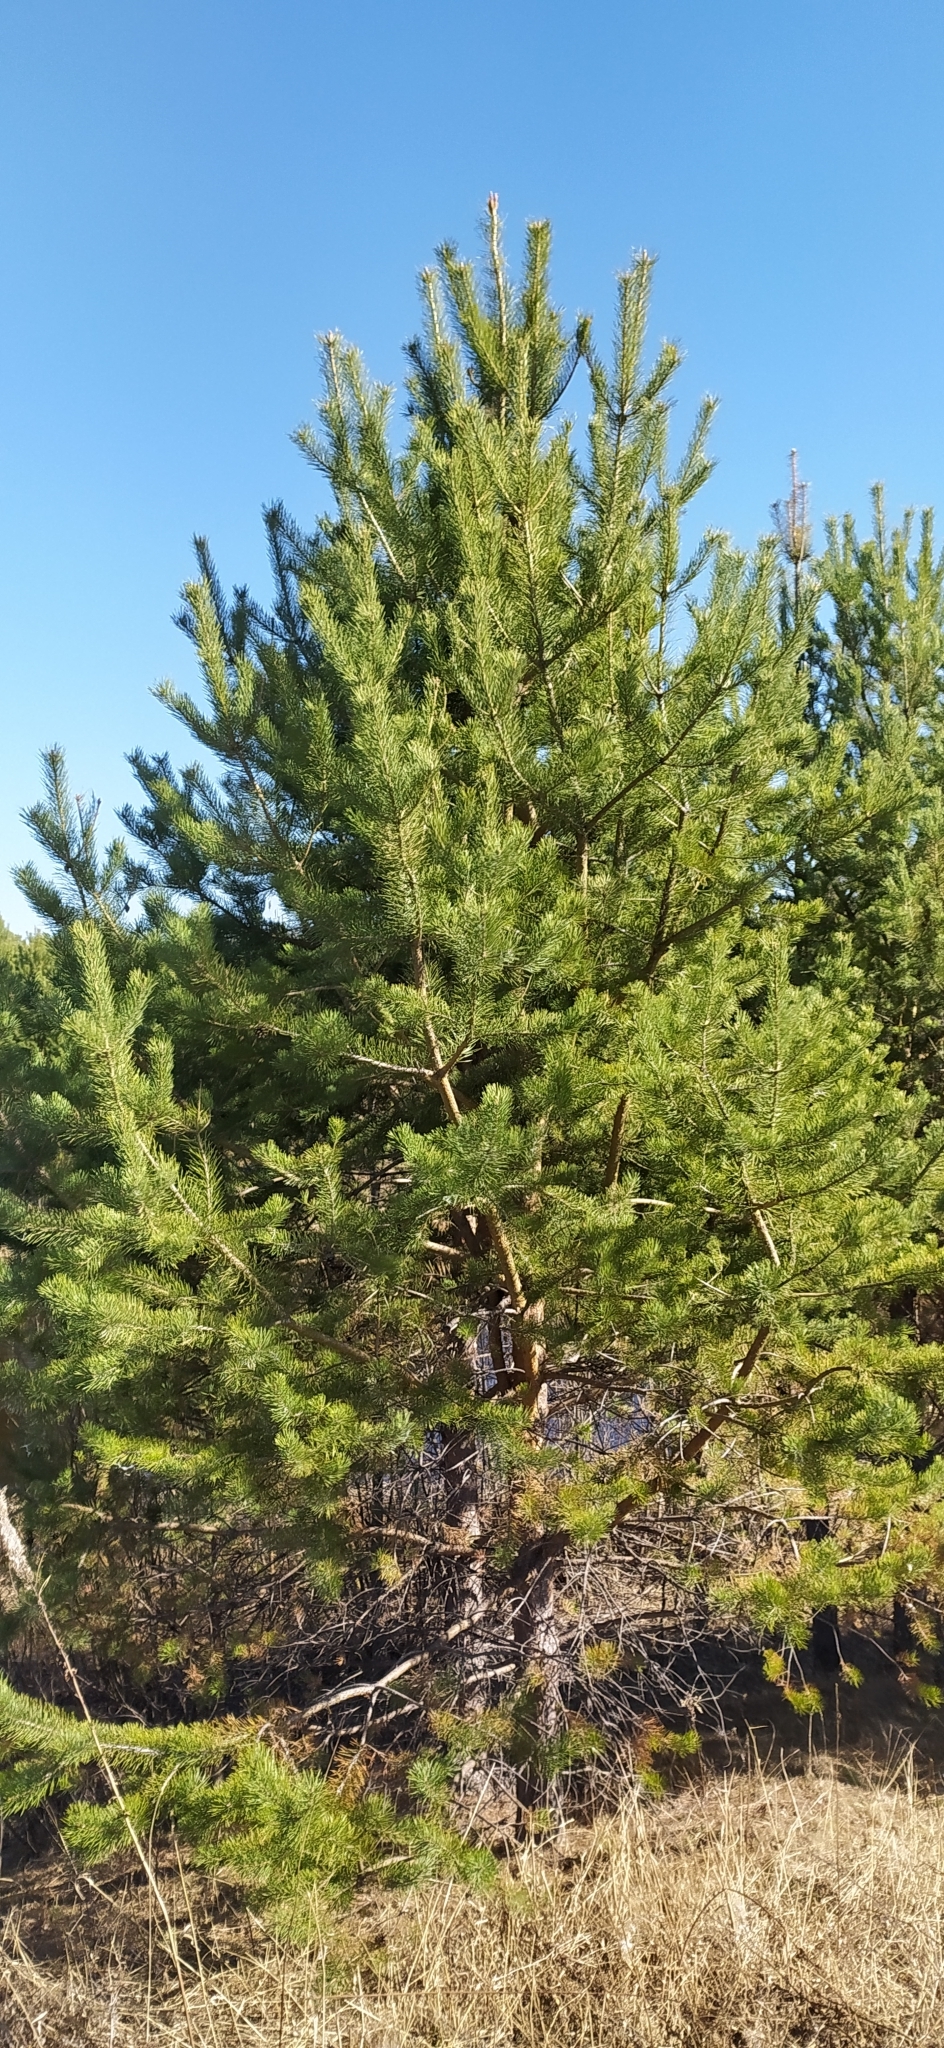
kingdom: Plantae
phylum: Tracheophyta
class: Pinopsida
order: Pinales
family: Pinaceae
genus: Pinus
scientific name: Pinus sylvestris
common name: Scots pine
